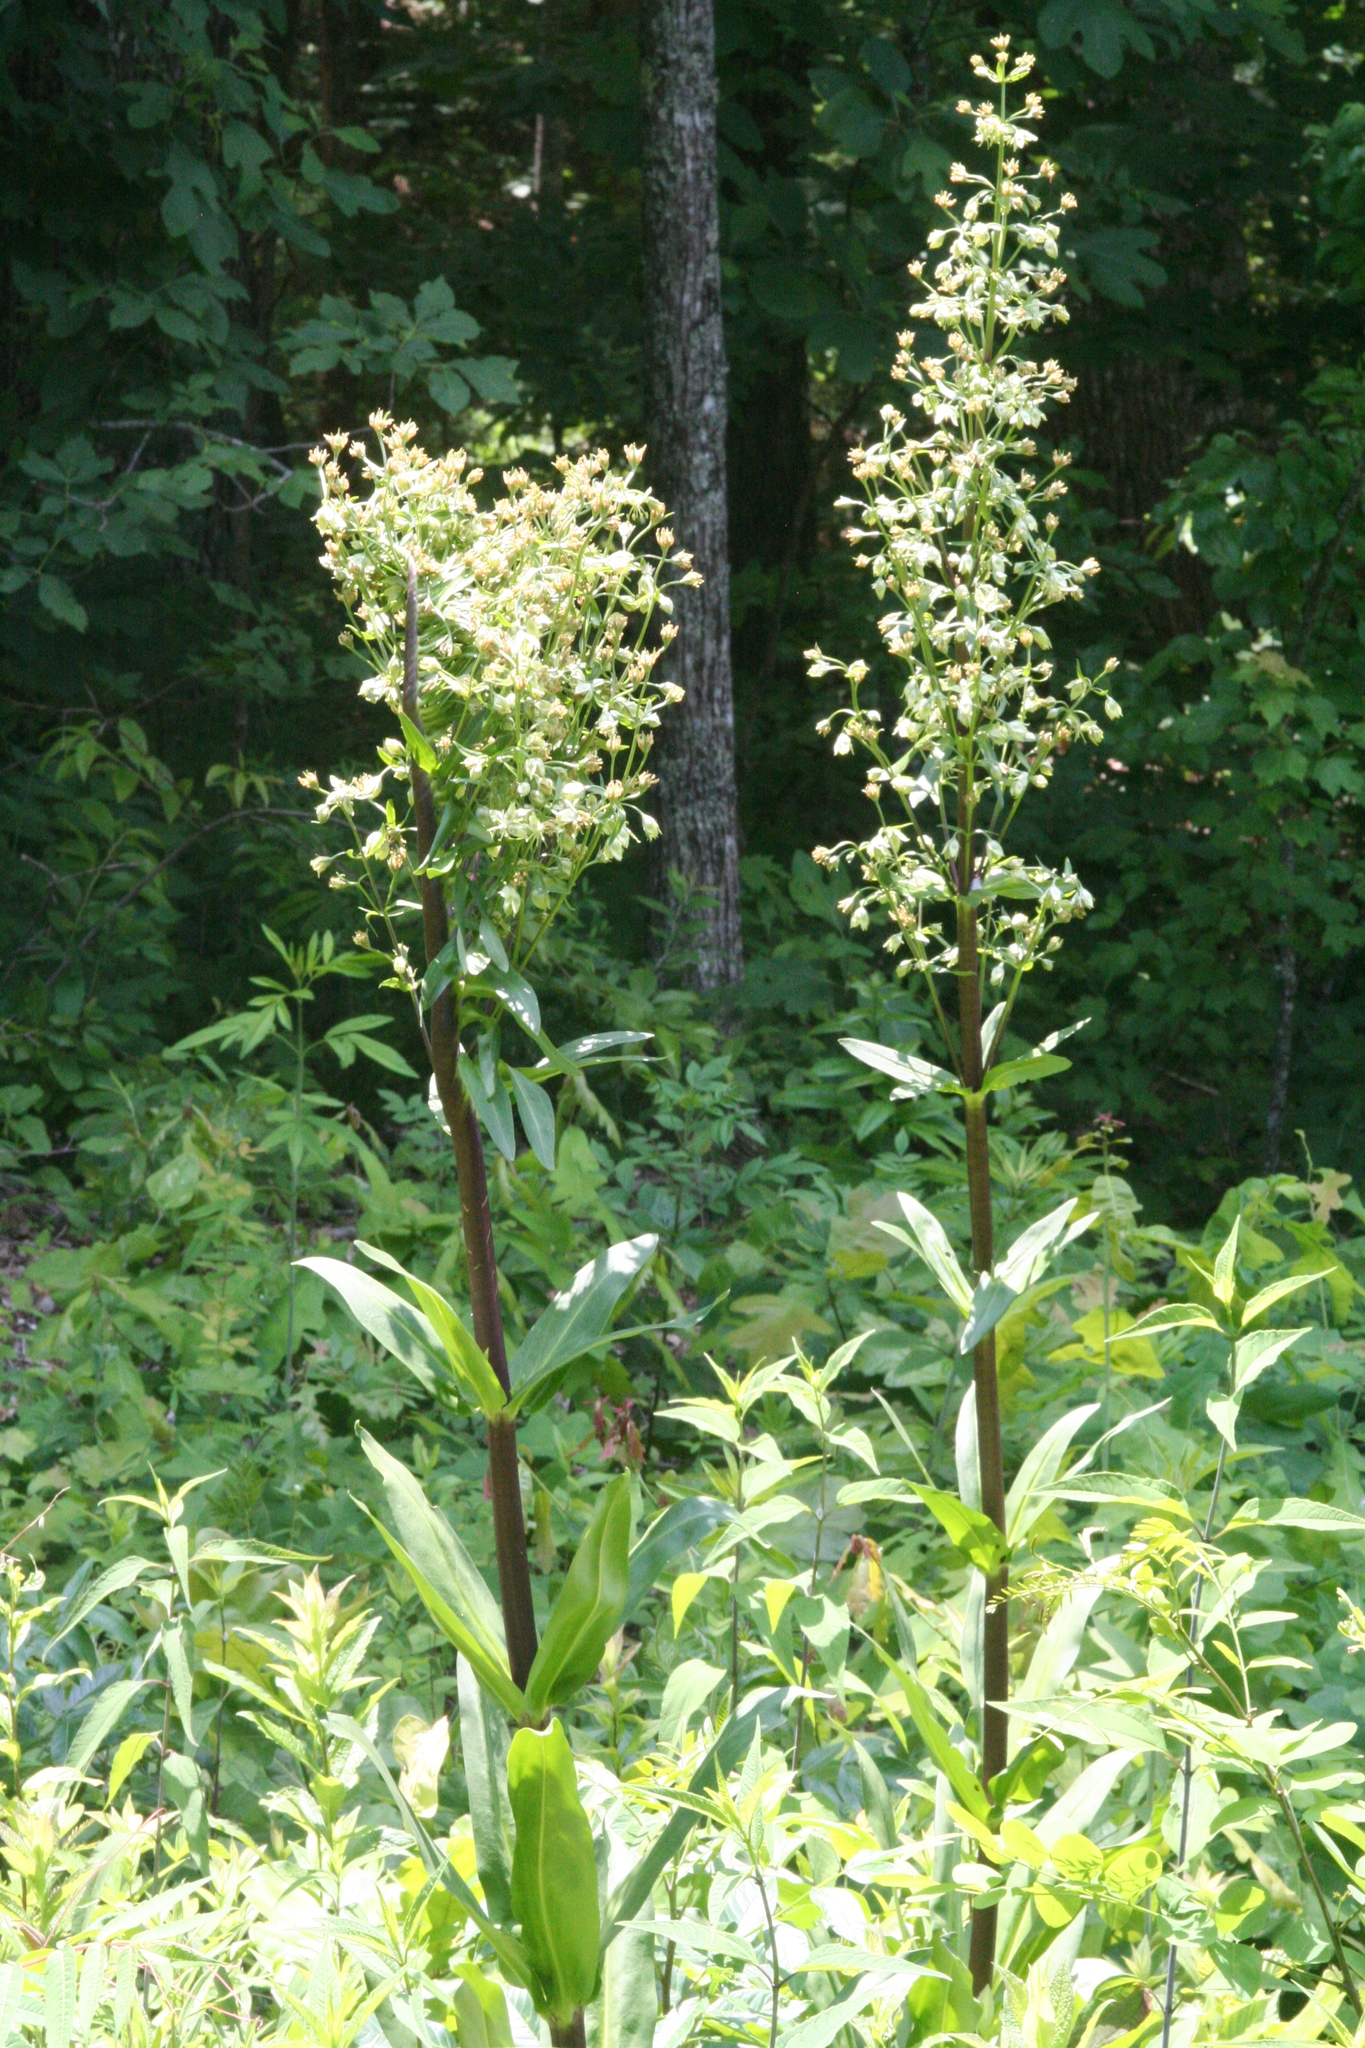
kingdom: Plantae
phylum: Tracheophyta
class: Magnoliopsida
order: Gentianales
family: Gentianaceae
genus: Frasera
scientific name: Frasera caroliniensis
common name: American columbo
